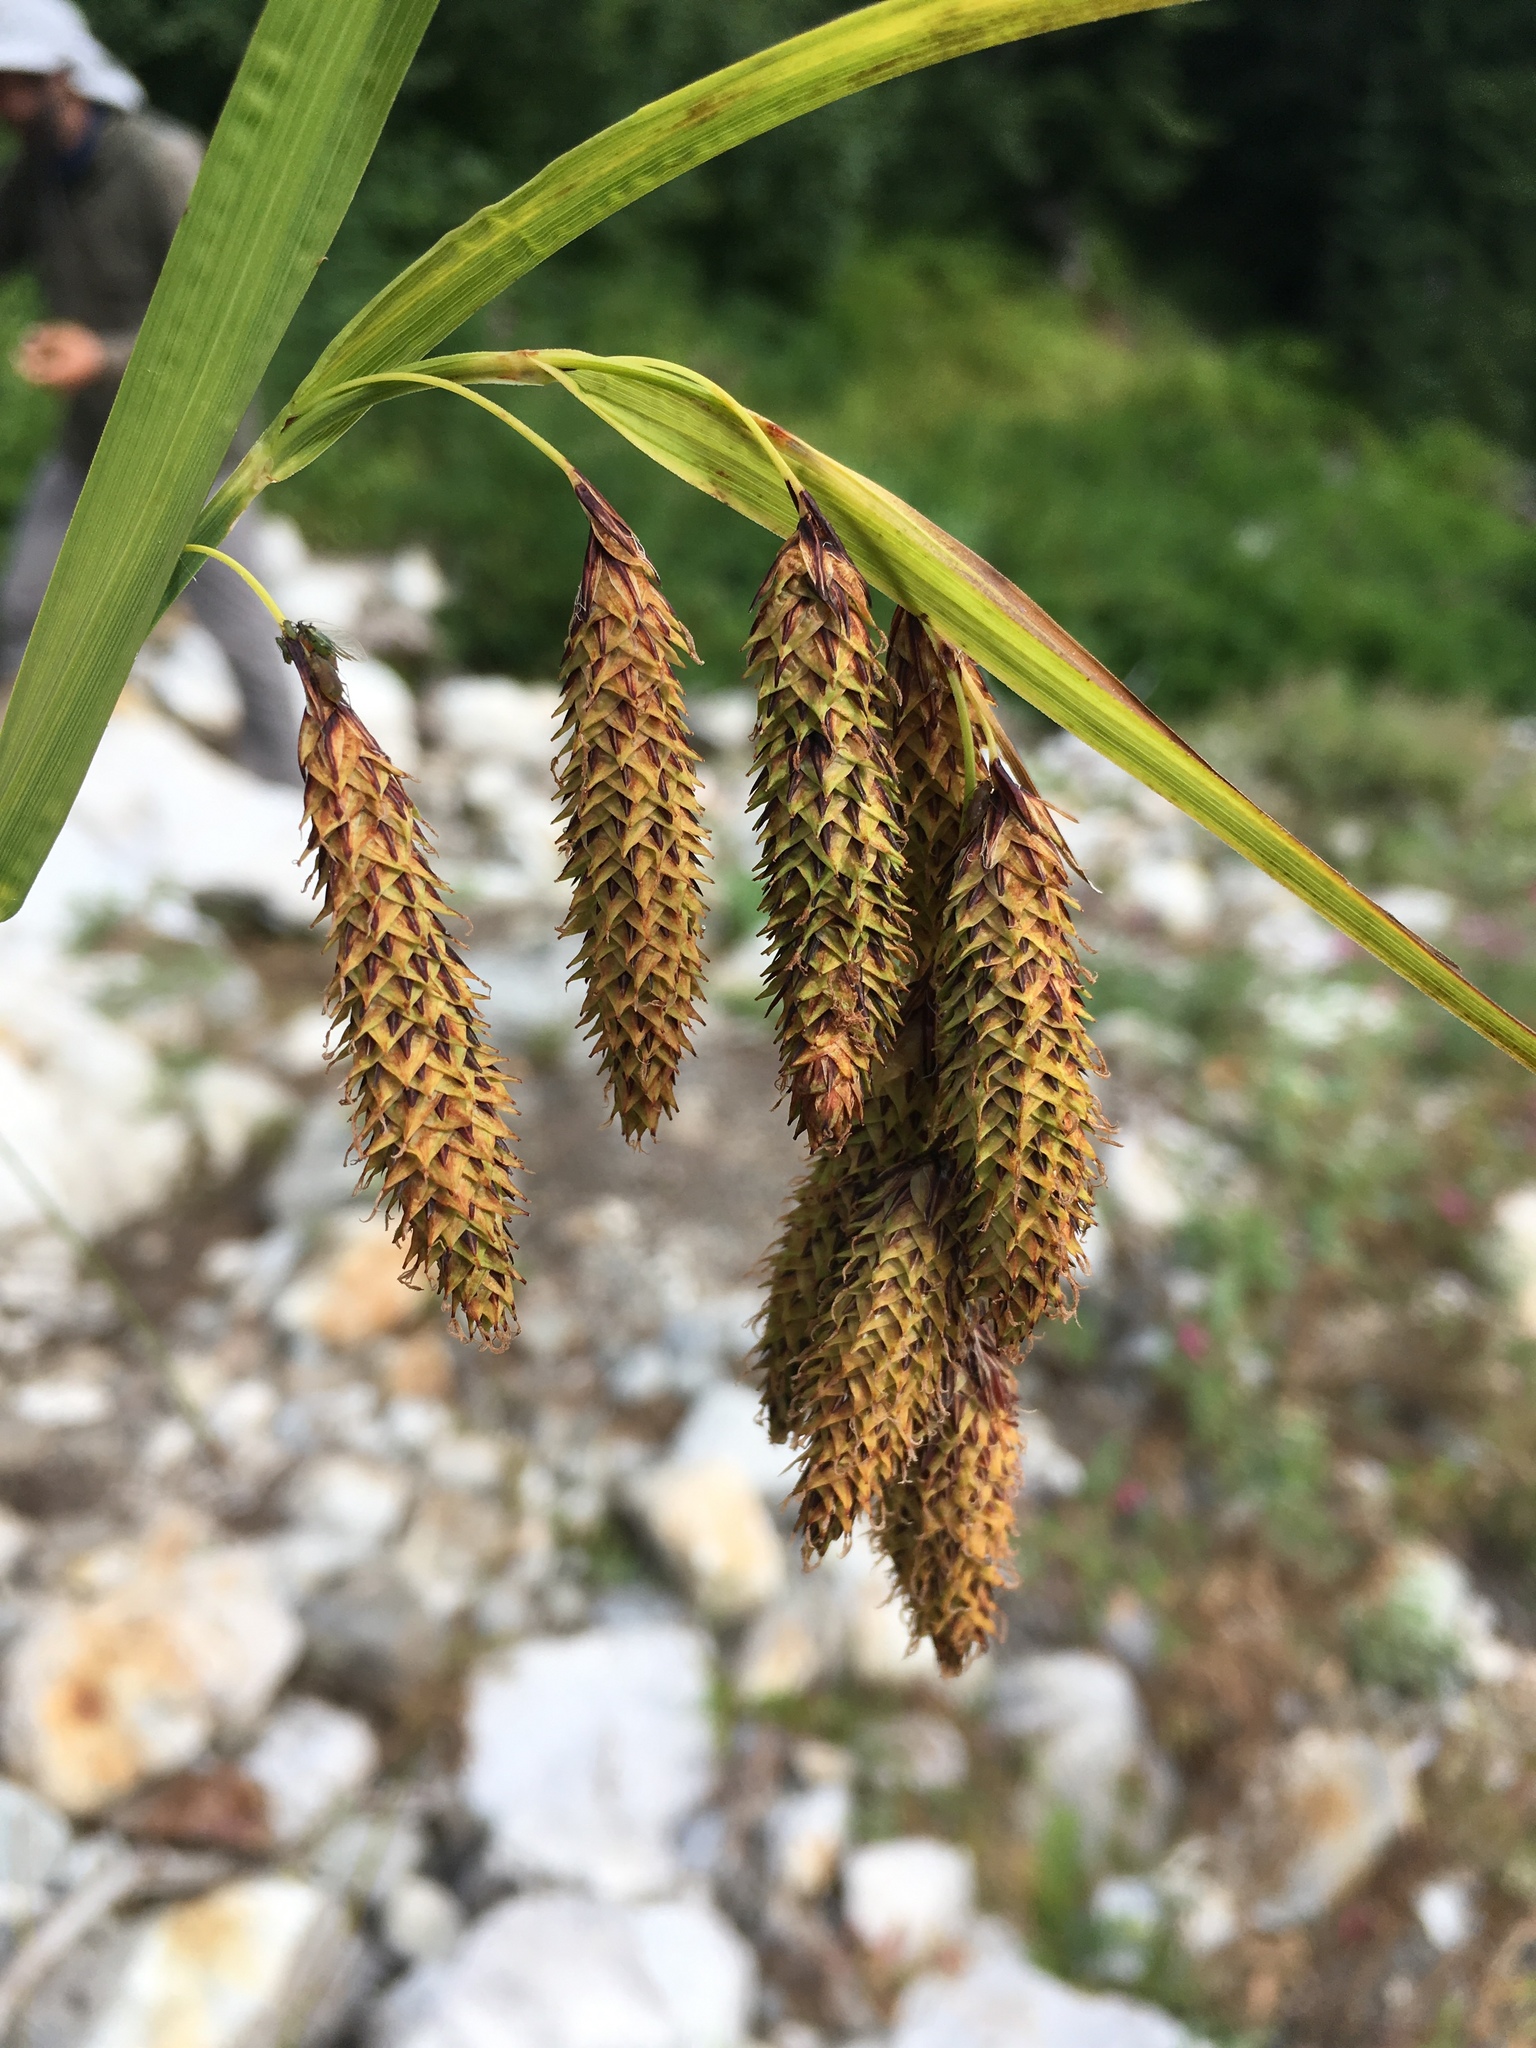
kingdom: Plantae
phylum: Tracheophyta
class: Liliopsida
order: Poales
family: Cyperaceae
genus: Carex
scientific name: Carex mertensii
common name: Mertens' sedge
